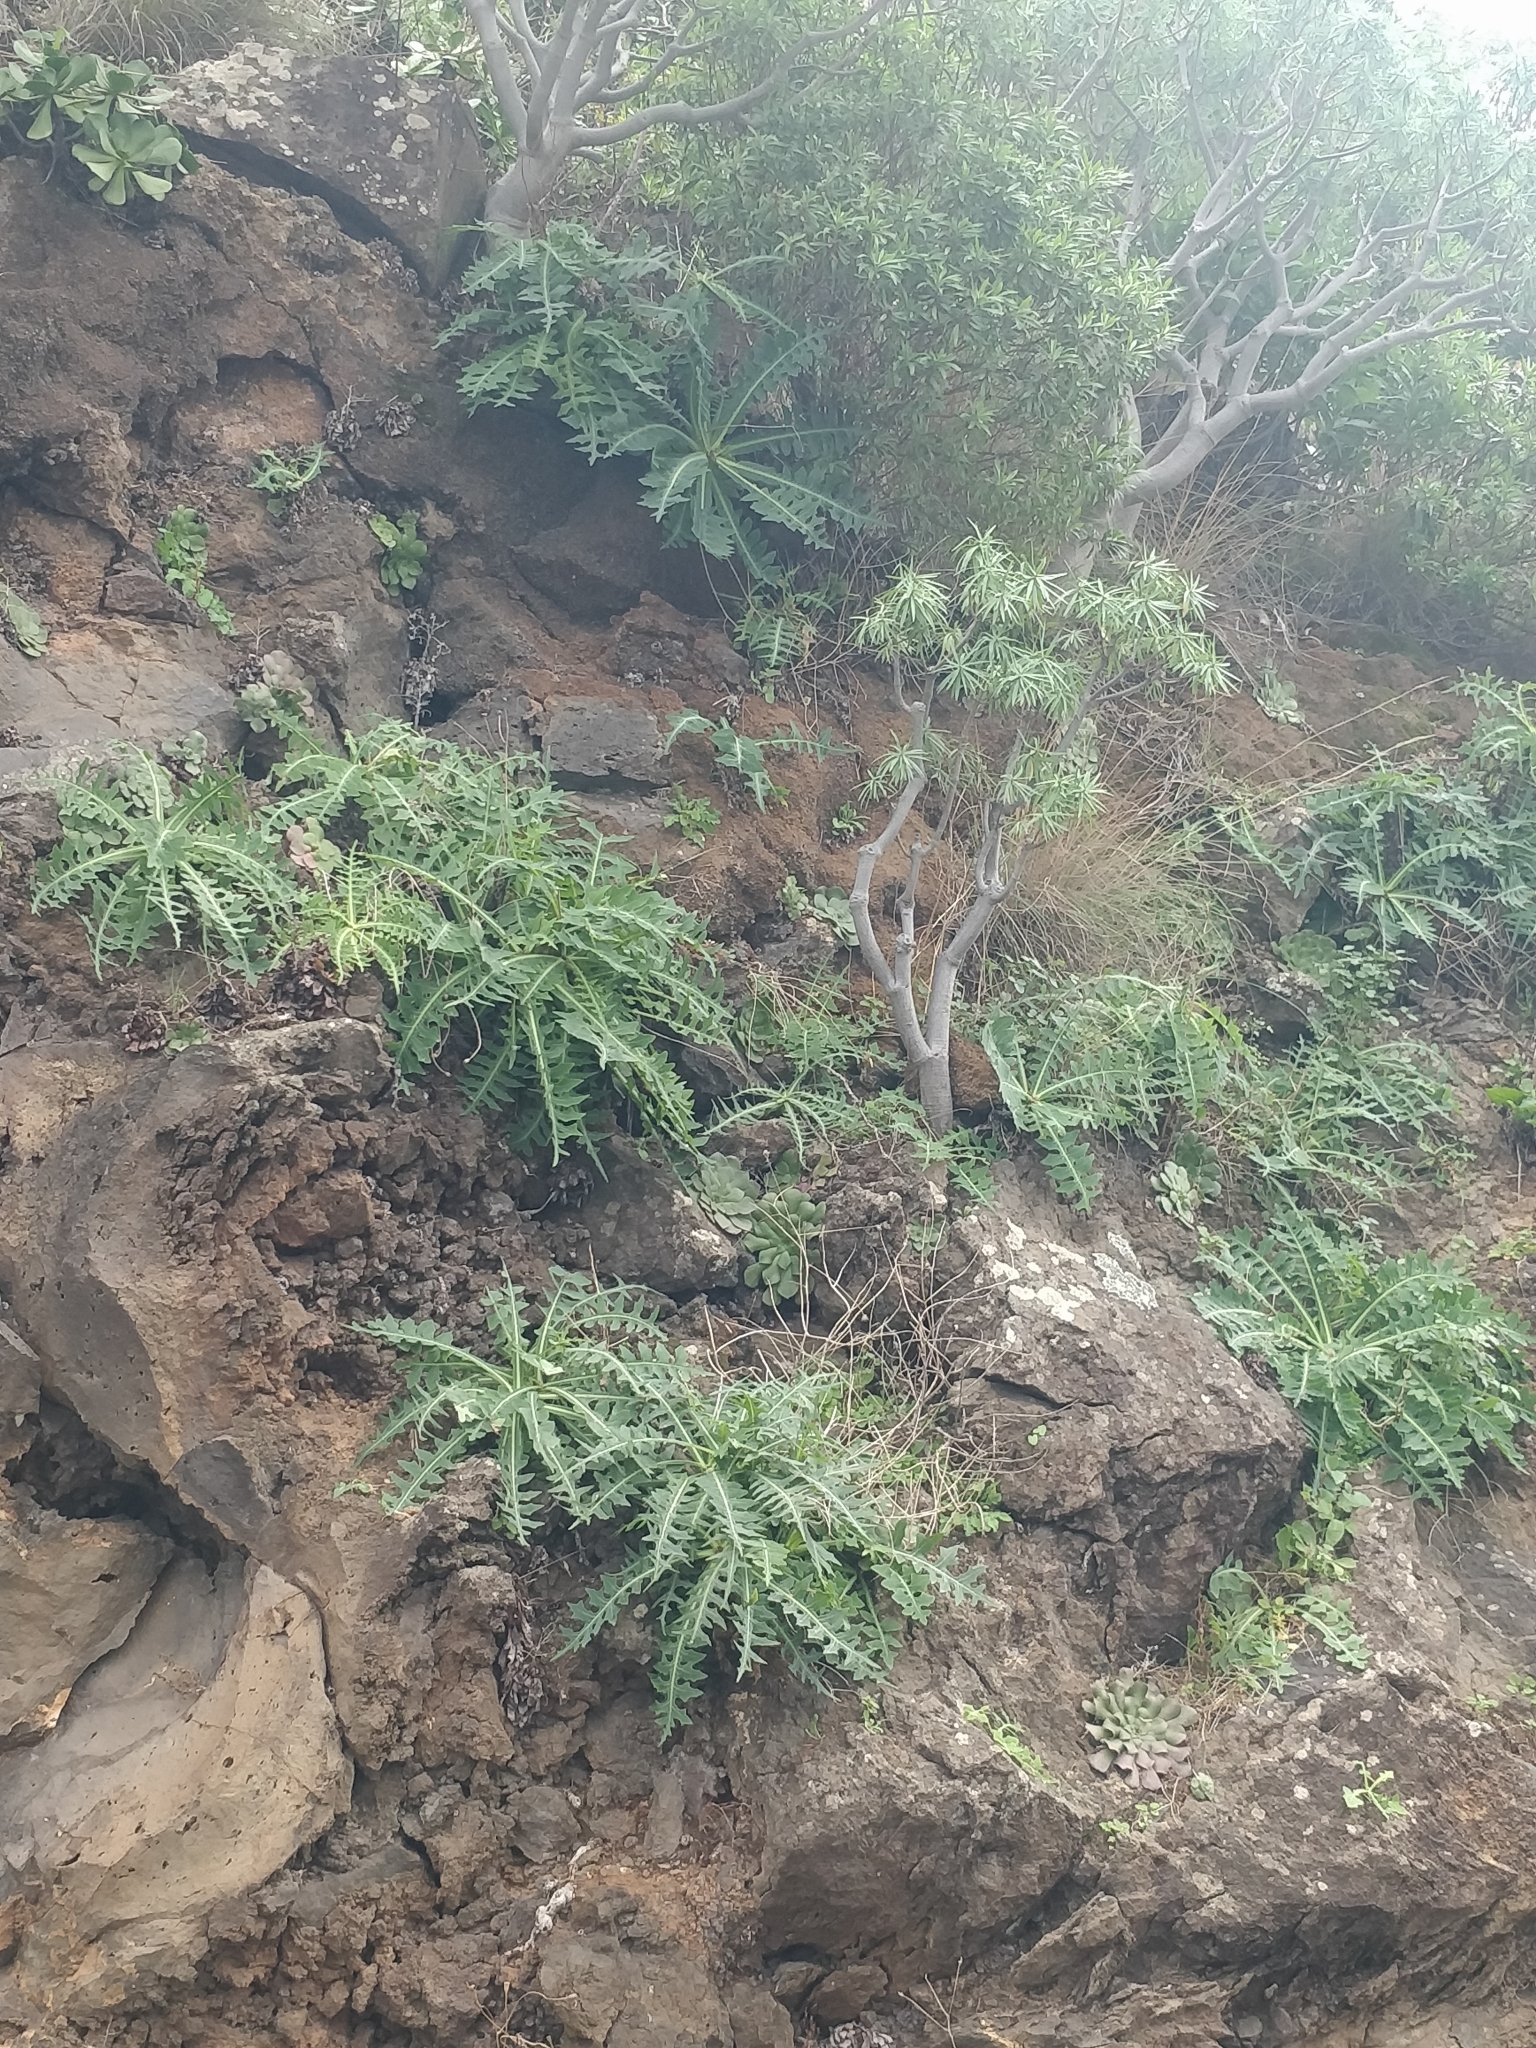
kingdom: Plantae
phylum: Tracheophyta
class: Magnoliopsida
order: Asterales
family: Asteraceae
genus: Sonchus
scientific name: Sonchus ustulatus
